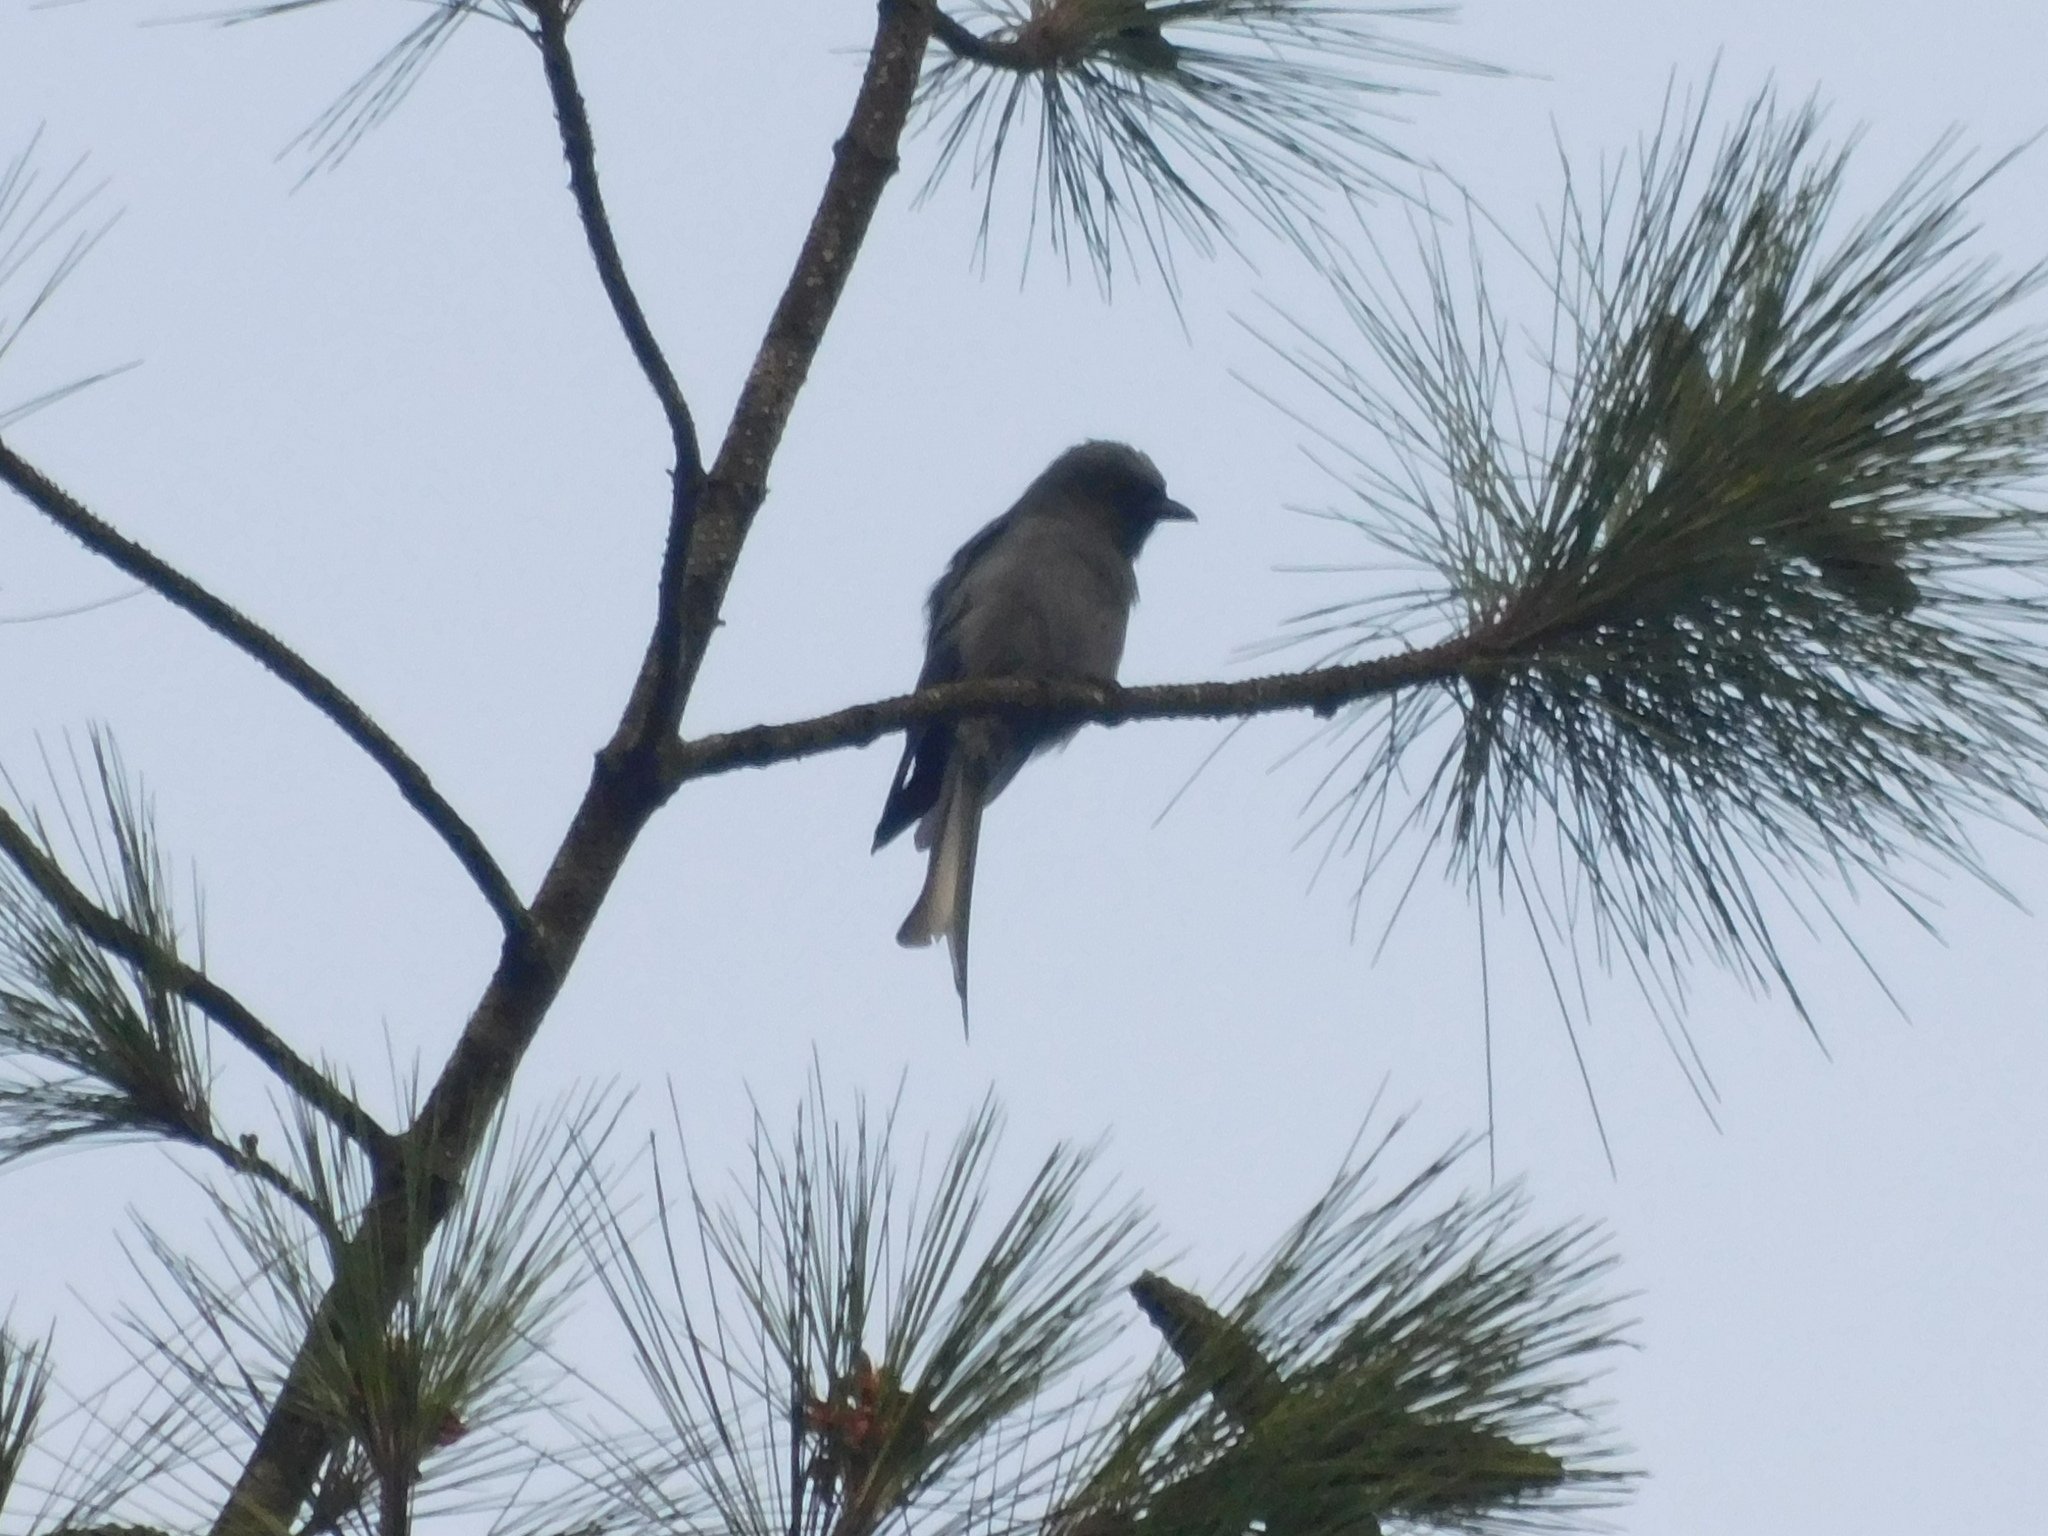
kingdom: Animalia
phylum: Chordata
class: Aves
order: Passeriformes
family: Dicruridae
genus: Dicrurus
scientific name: Dicrurus leucophaeus
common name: Ashy drongo
